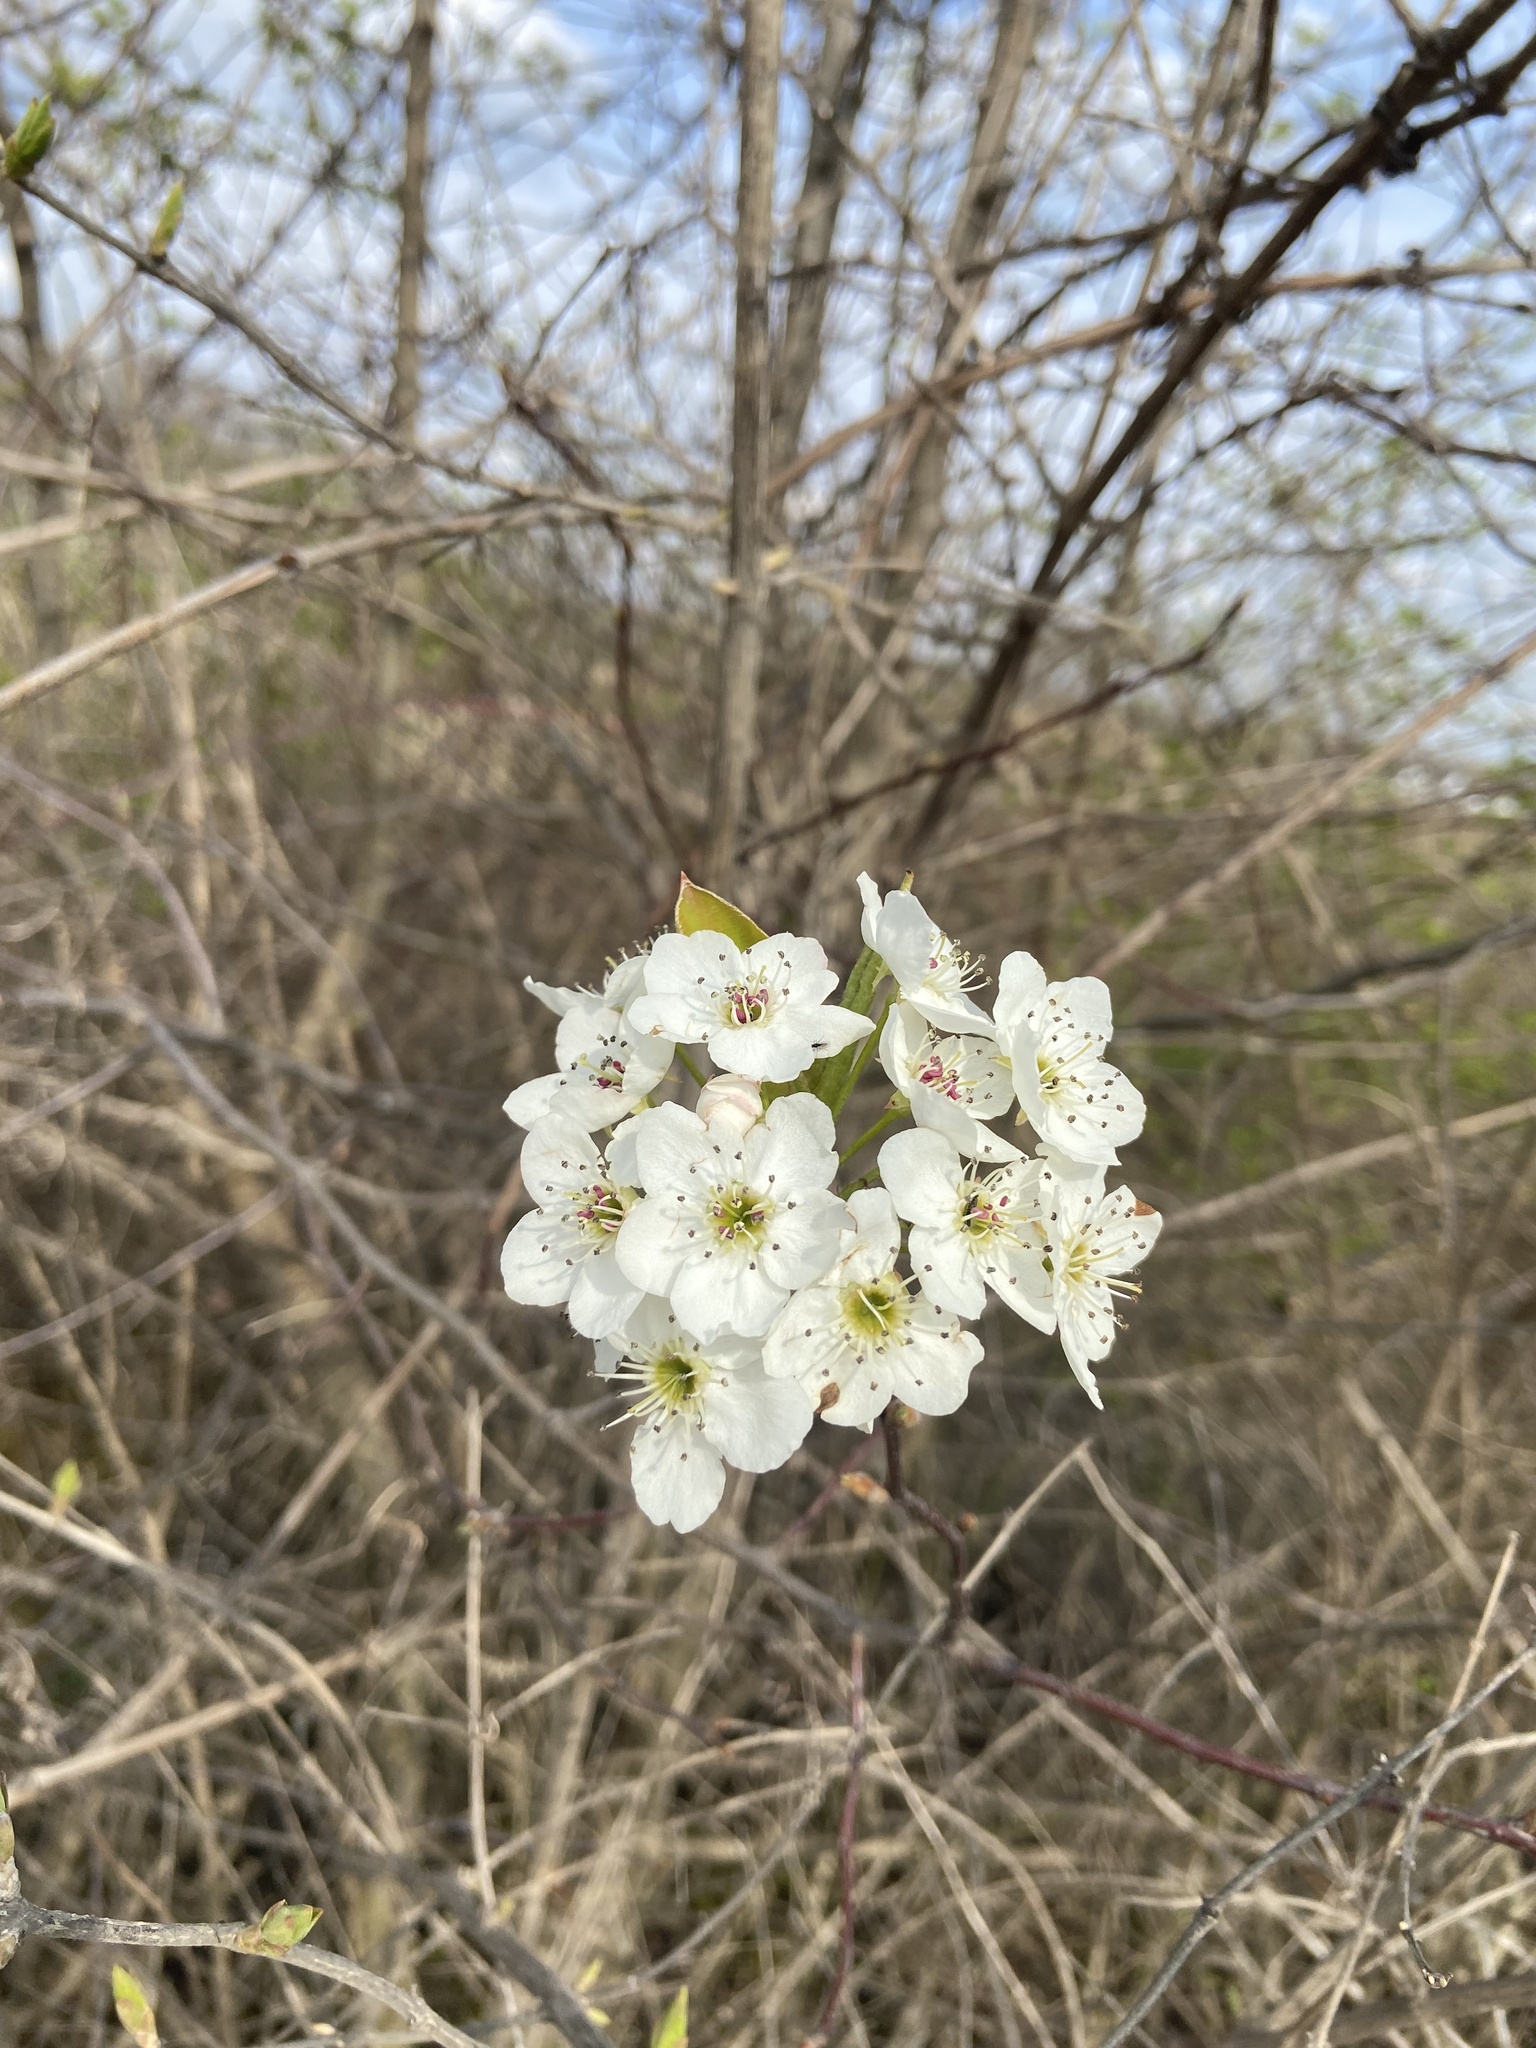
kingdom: Plantae
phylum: Tracheophyta
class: Magnoliopsida
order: Rosales
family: Rosaceae
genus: Pyrus
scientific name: Pyrus calleryana
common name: Callery pear
